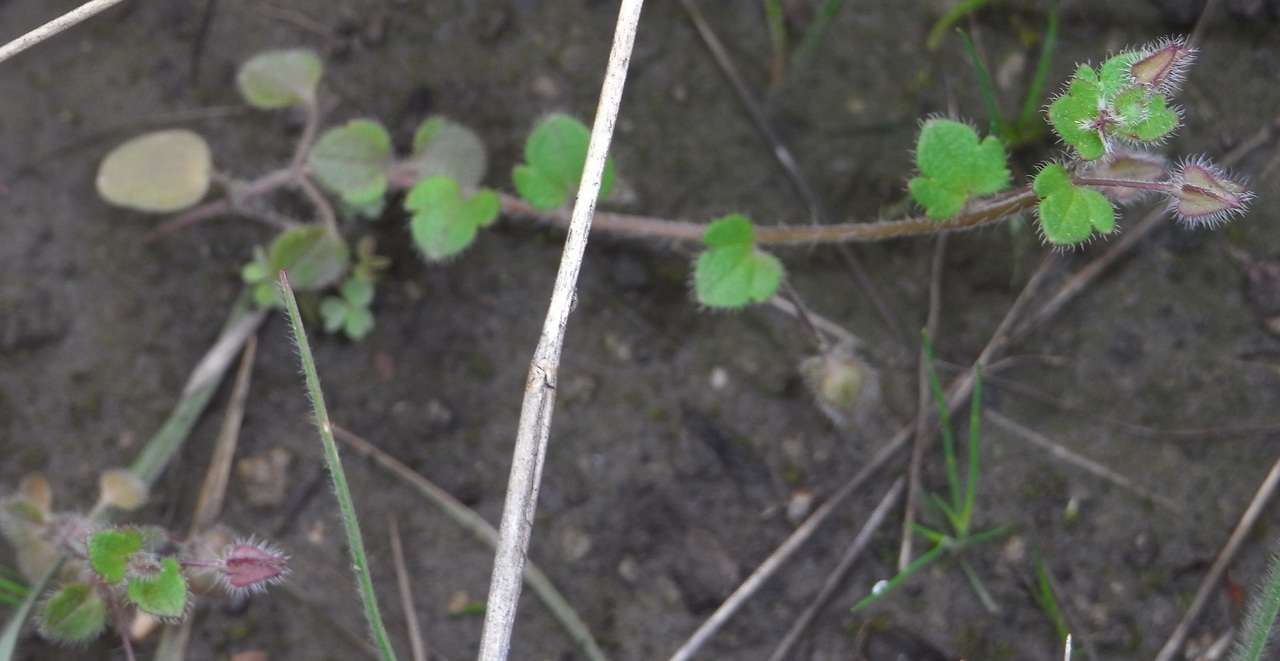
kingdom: Plantae
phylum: Tracheophyta
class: Magnoliopsida
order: Lamiales
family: Plantaginaceae
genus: Veronica
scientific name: Veronica hederifolia
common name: Ivy-leaved speedwell
